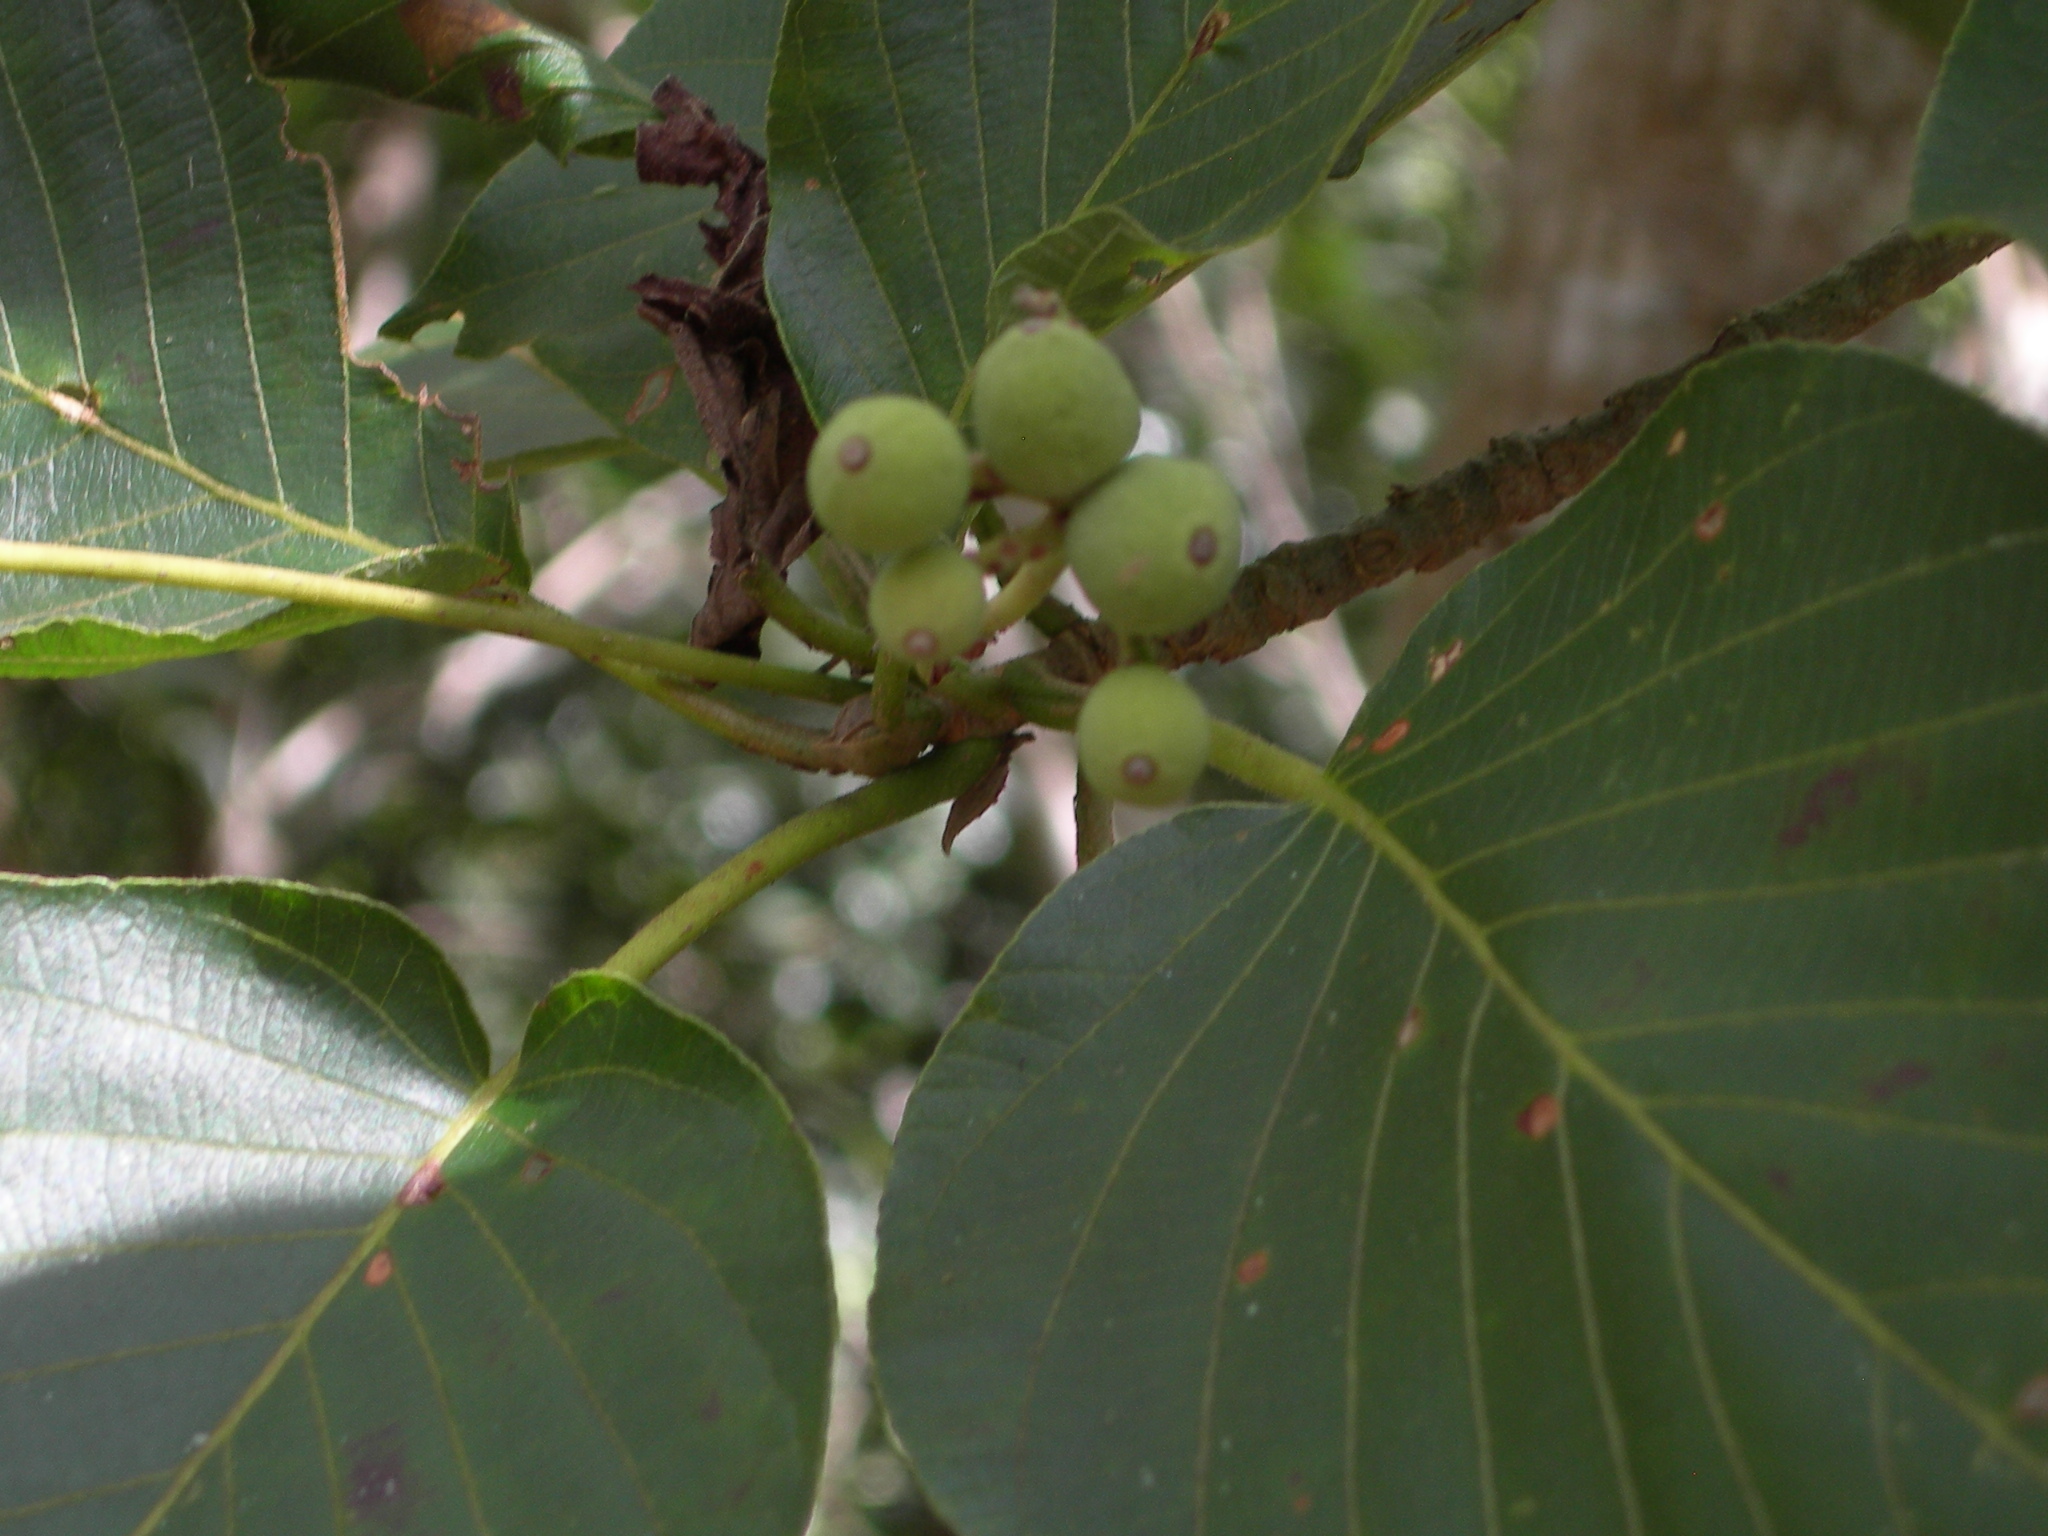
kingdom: Plantae
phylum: Tracheophyta
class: Magnoliopsida
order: Gentianales
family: Rubiaceae
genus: Guettarda
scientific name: Guettarda combsii
